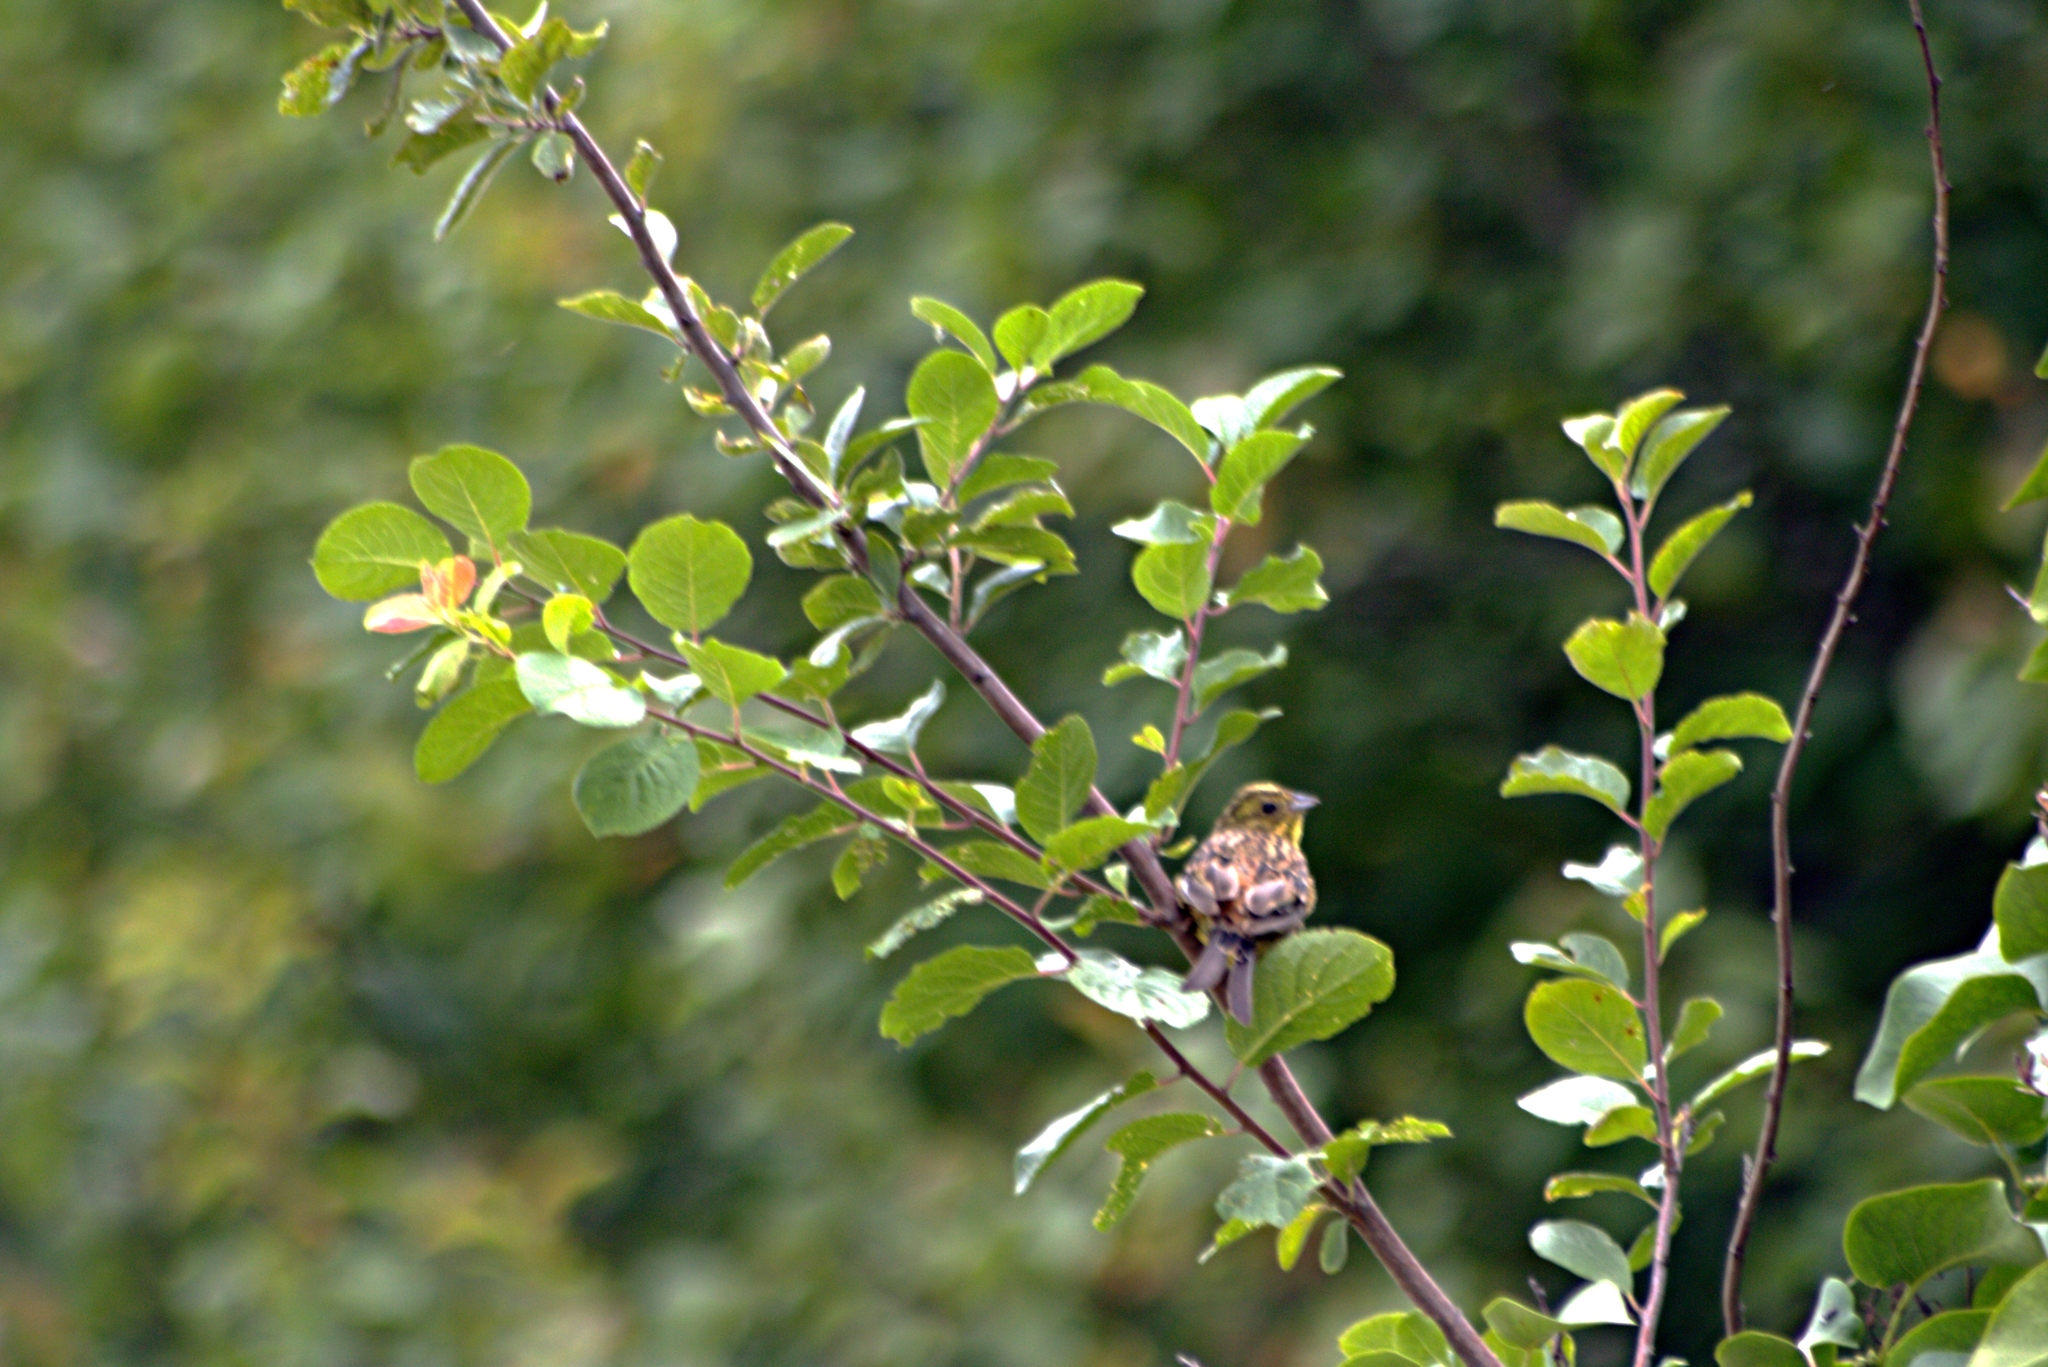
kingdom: Animalia
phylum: Chordata
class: Aves
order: Passeriformes
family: Emberizidae
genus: Emberiza
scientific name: Emberiza citrinella
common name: Yellowhammer
